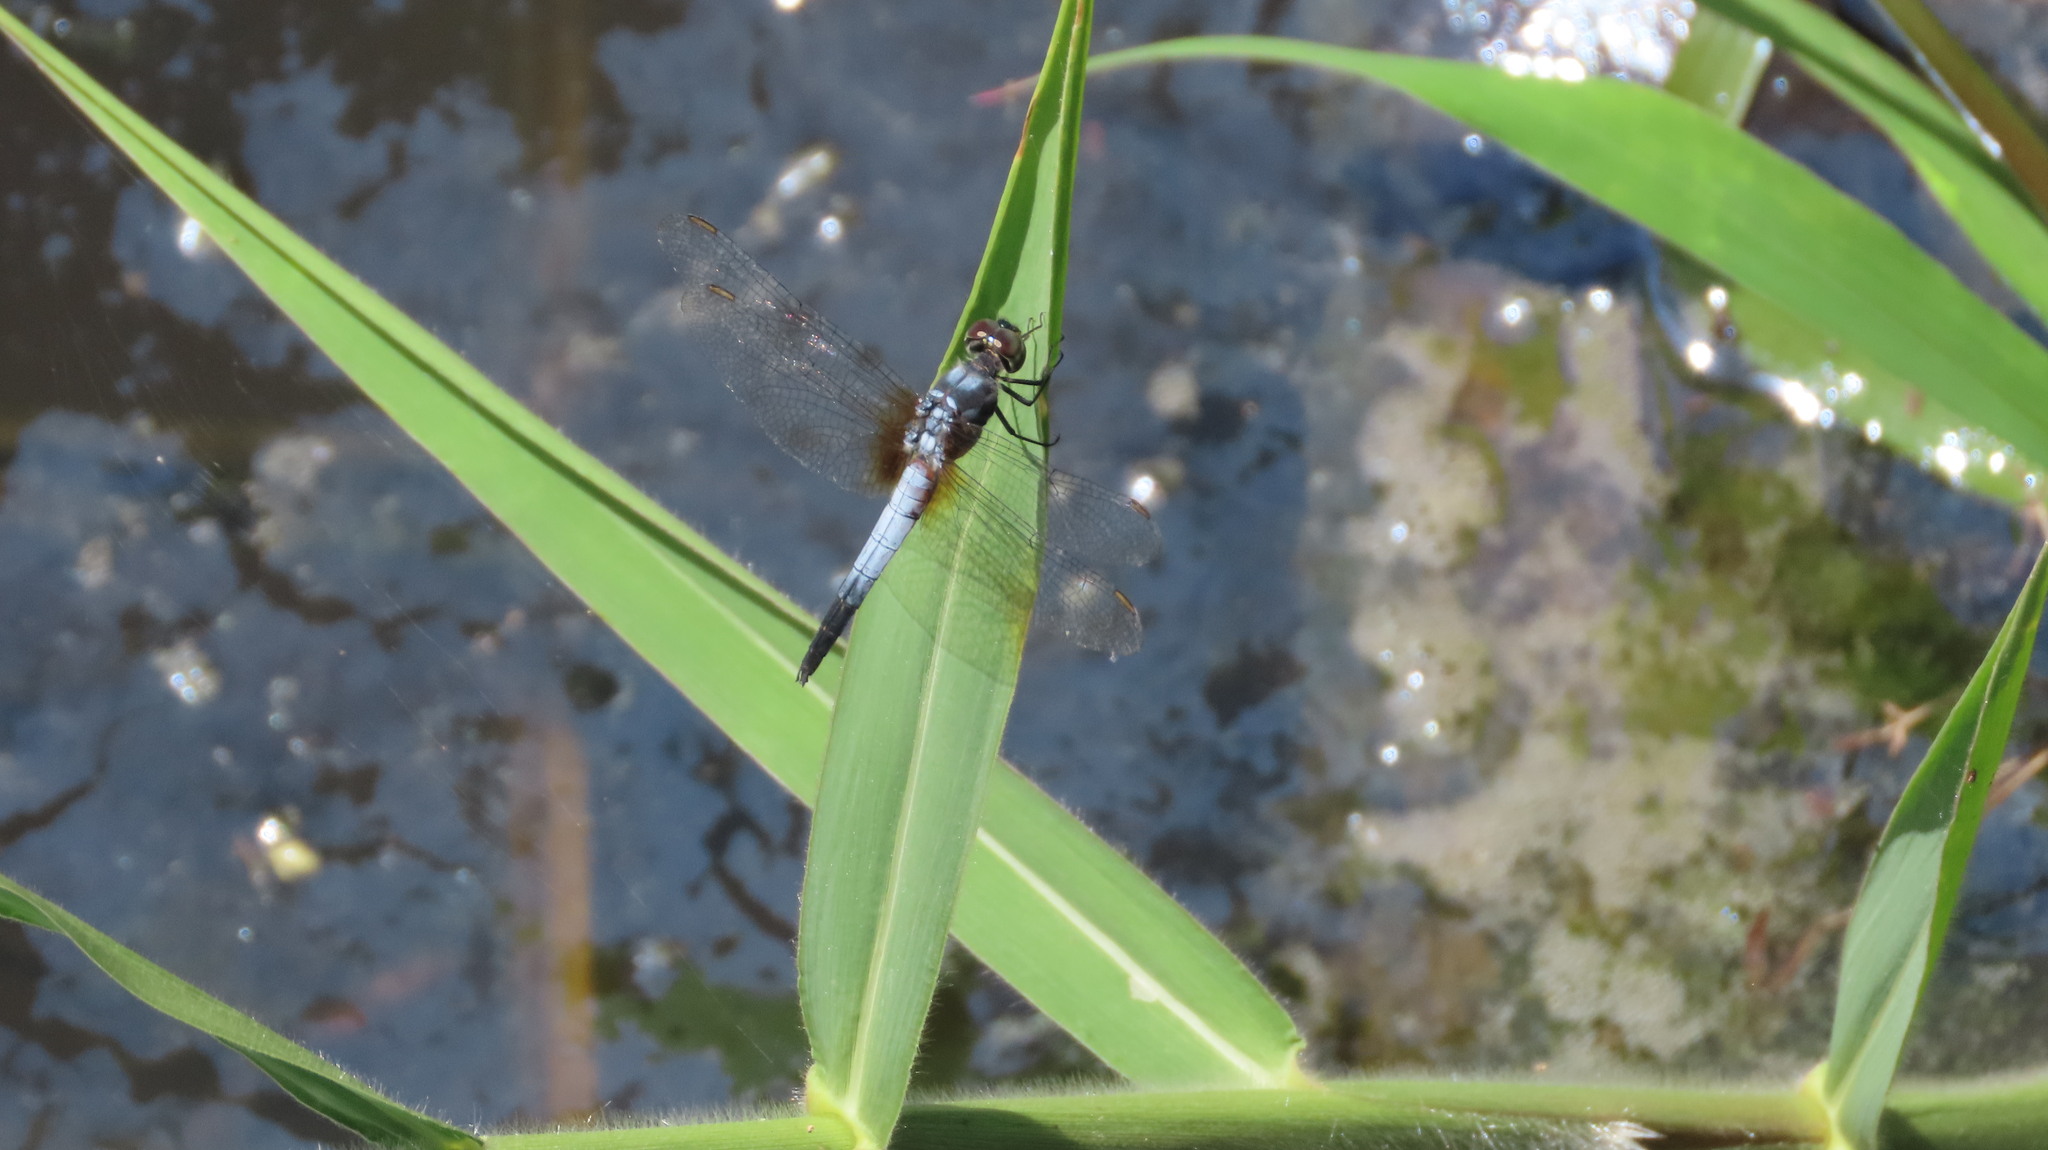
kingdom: Animalia
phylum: Arthropoda
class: Insecta
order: Odonata
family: Libellulidae
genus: Brachydiplax
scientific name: Brachydiplax chalybea
